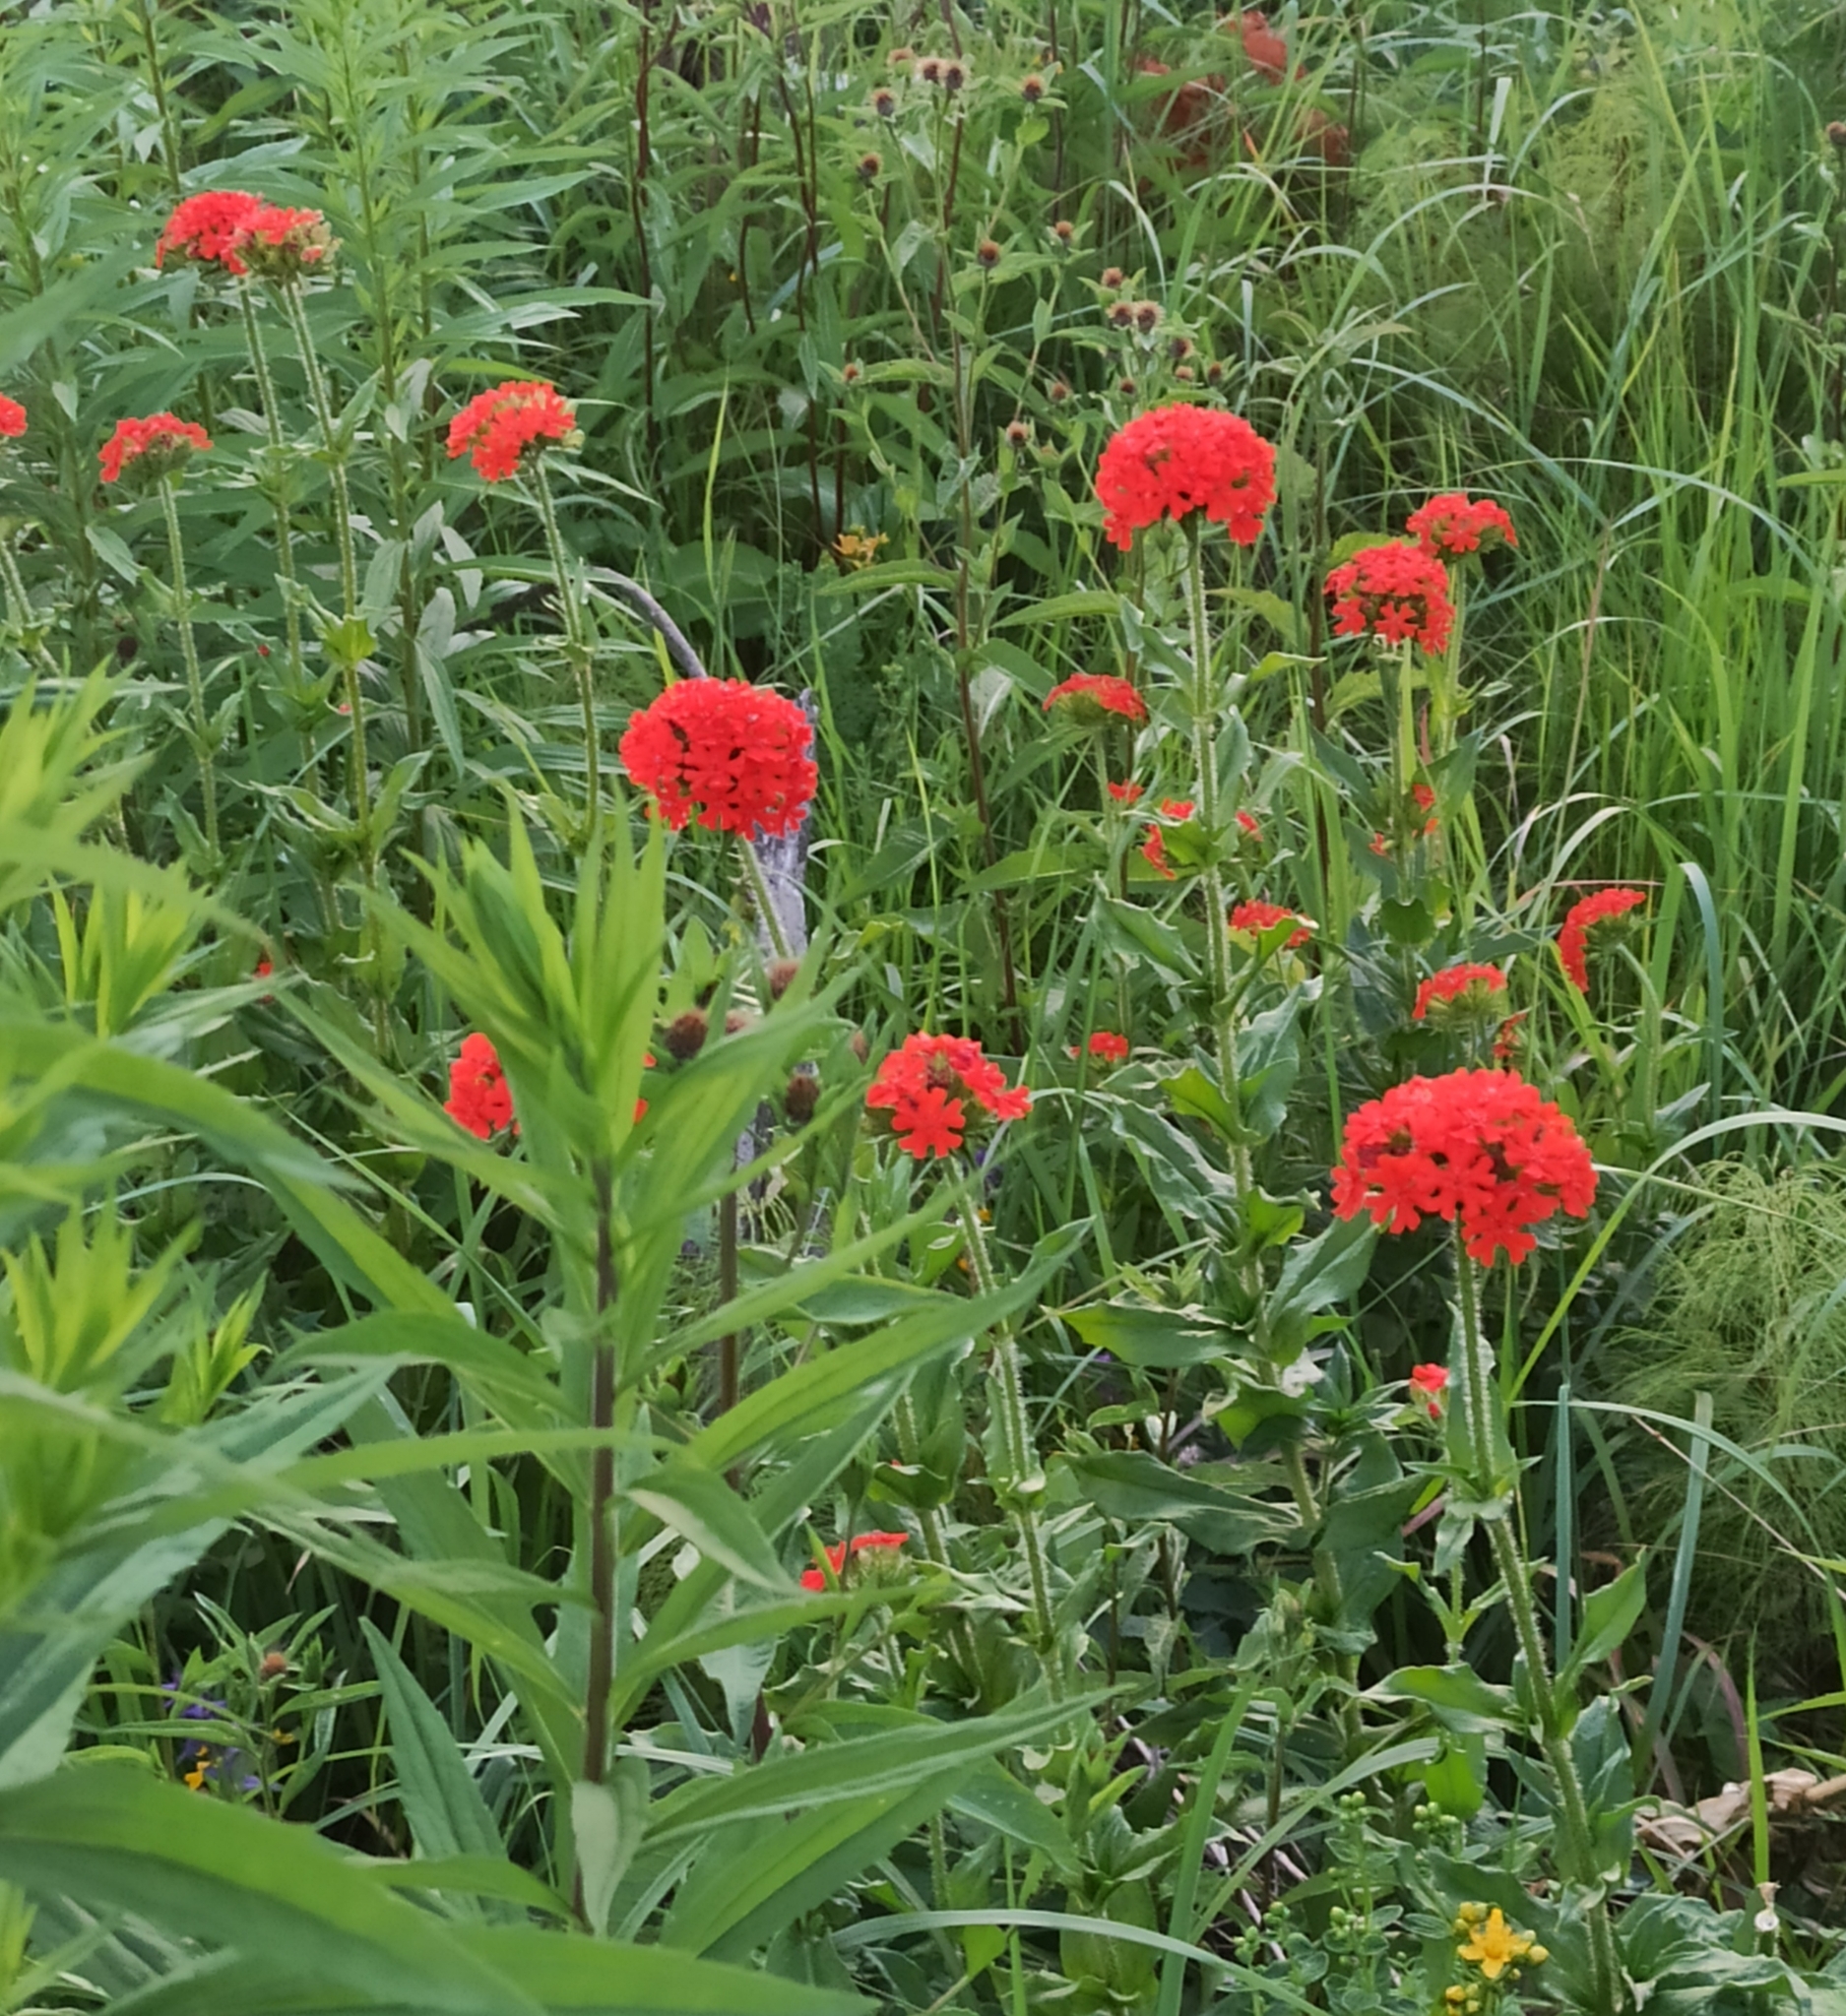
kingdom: Plantae
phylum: Tracheophyta
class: Magnoliopsida
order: Caryophyllales
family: Caryophyllaceae
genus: Silene
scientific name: Silene chalcedonica
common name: Maltese-cross
